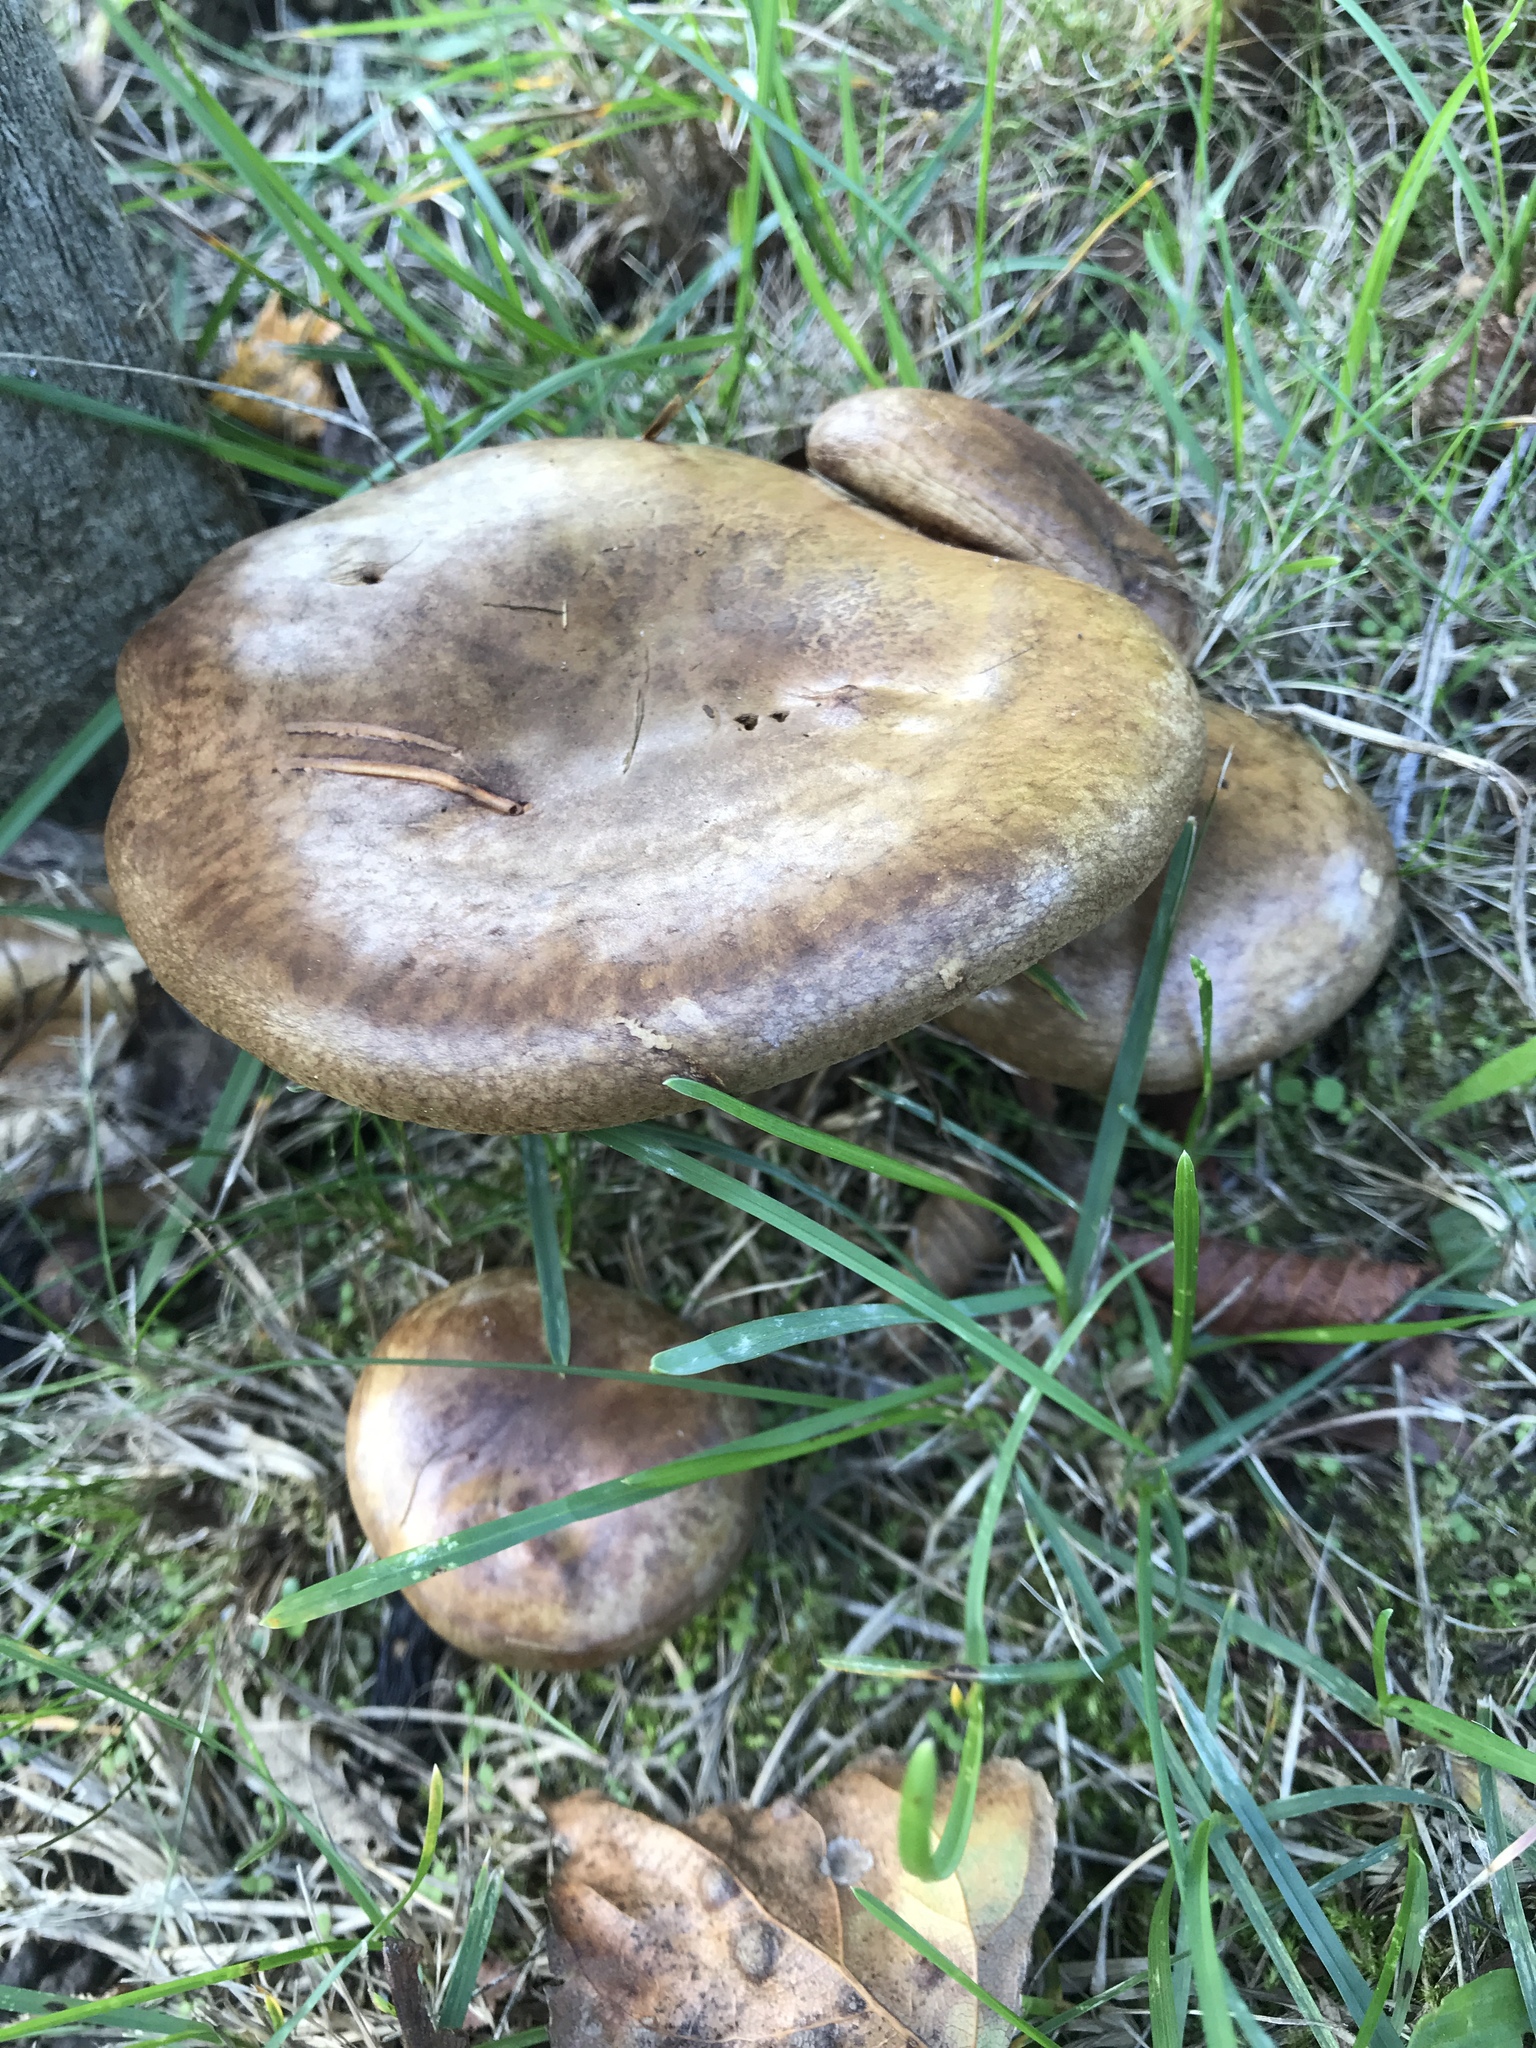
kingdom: Fungi
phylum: Basidiomycota
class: Agaricomycetes
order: Boletales
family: Paxillaceae
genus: Paxillus
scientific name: Paxillus involutus
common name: Brown roll rim
